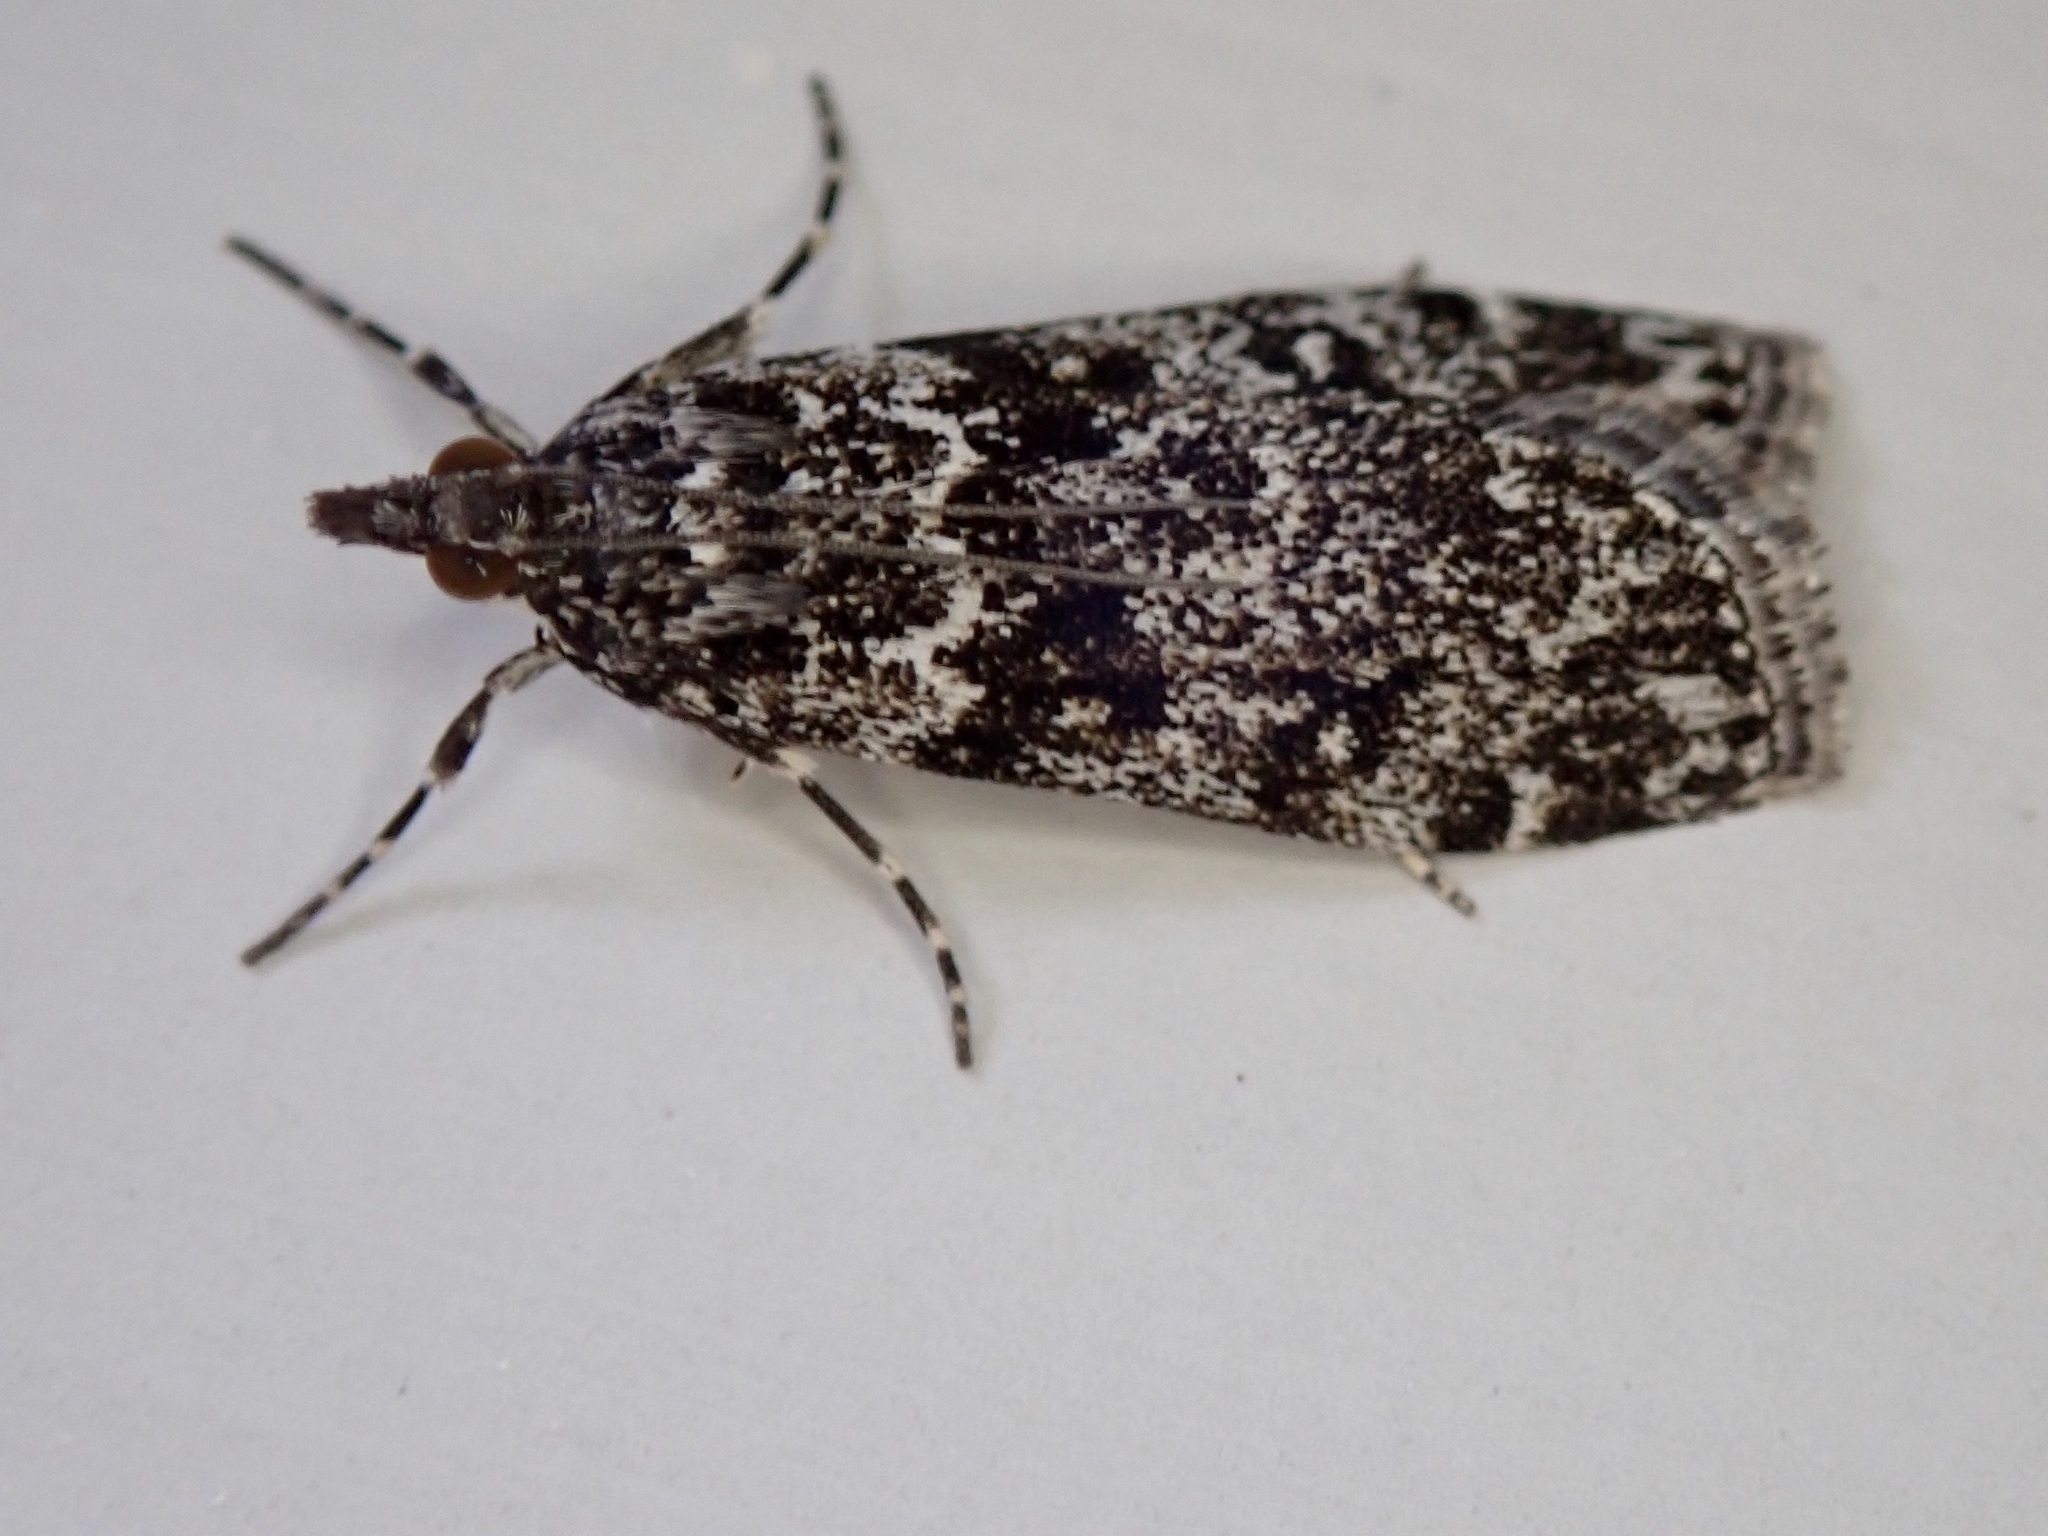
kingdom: Animalia
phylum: Arthropoda
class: Insecta
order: Lepidoptera
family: Crambidae
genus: Eudonia
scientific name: Eudonia philerga
